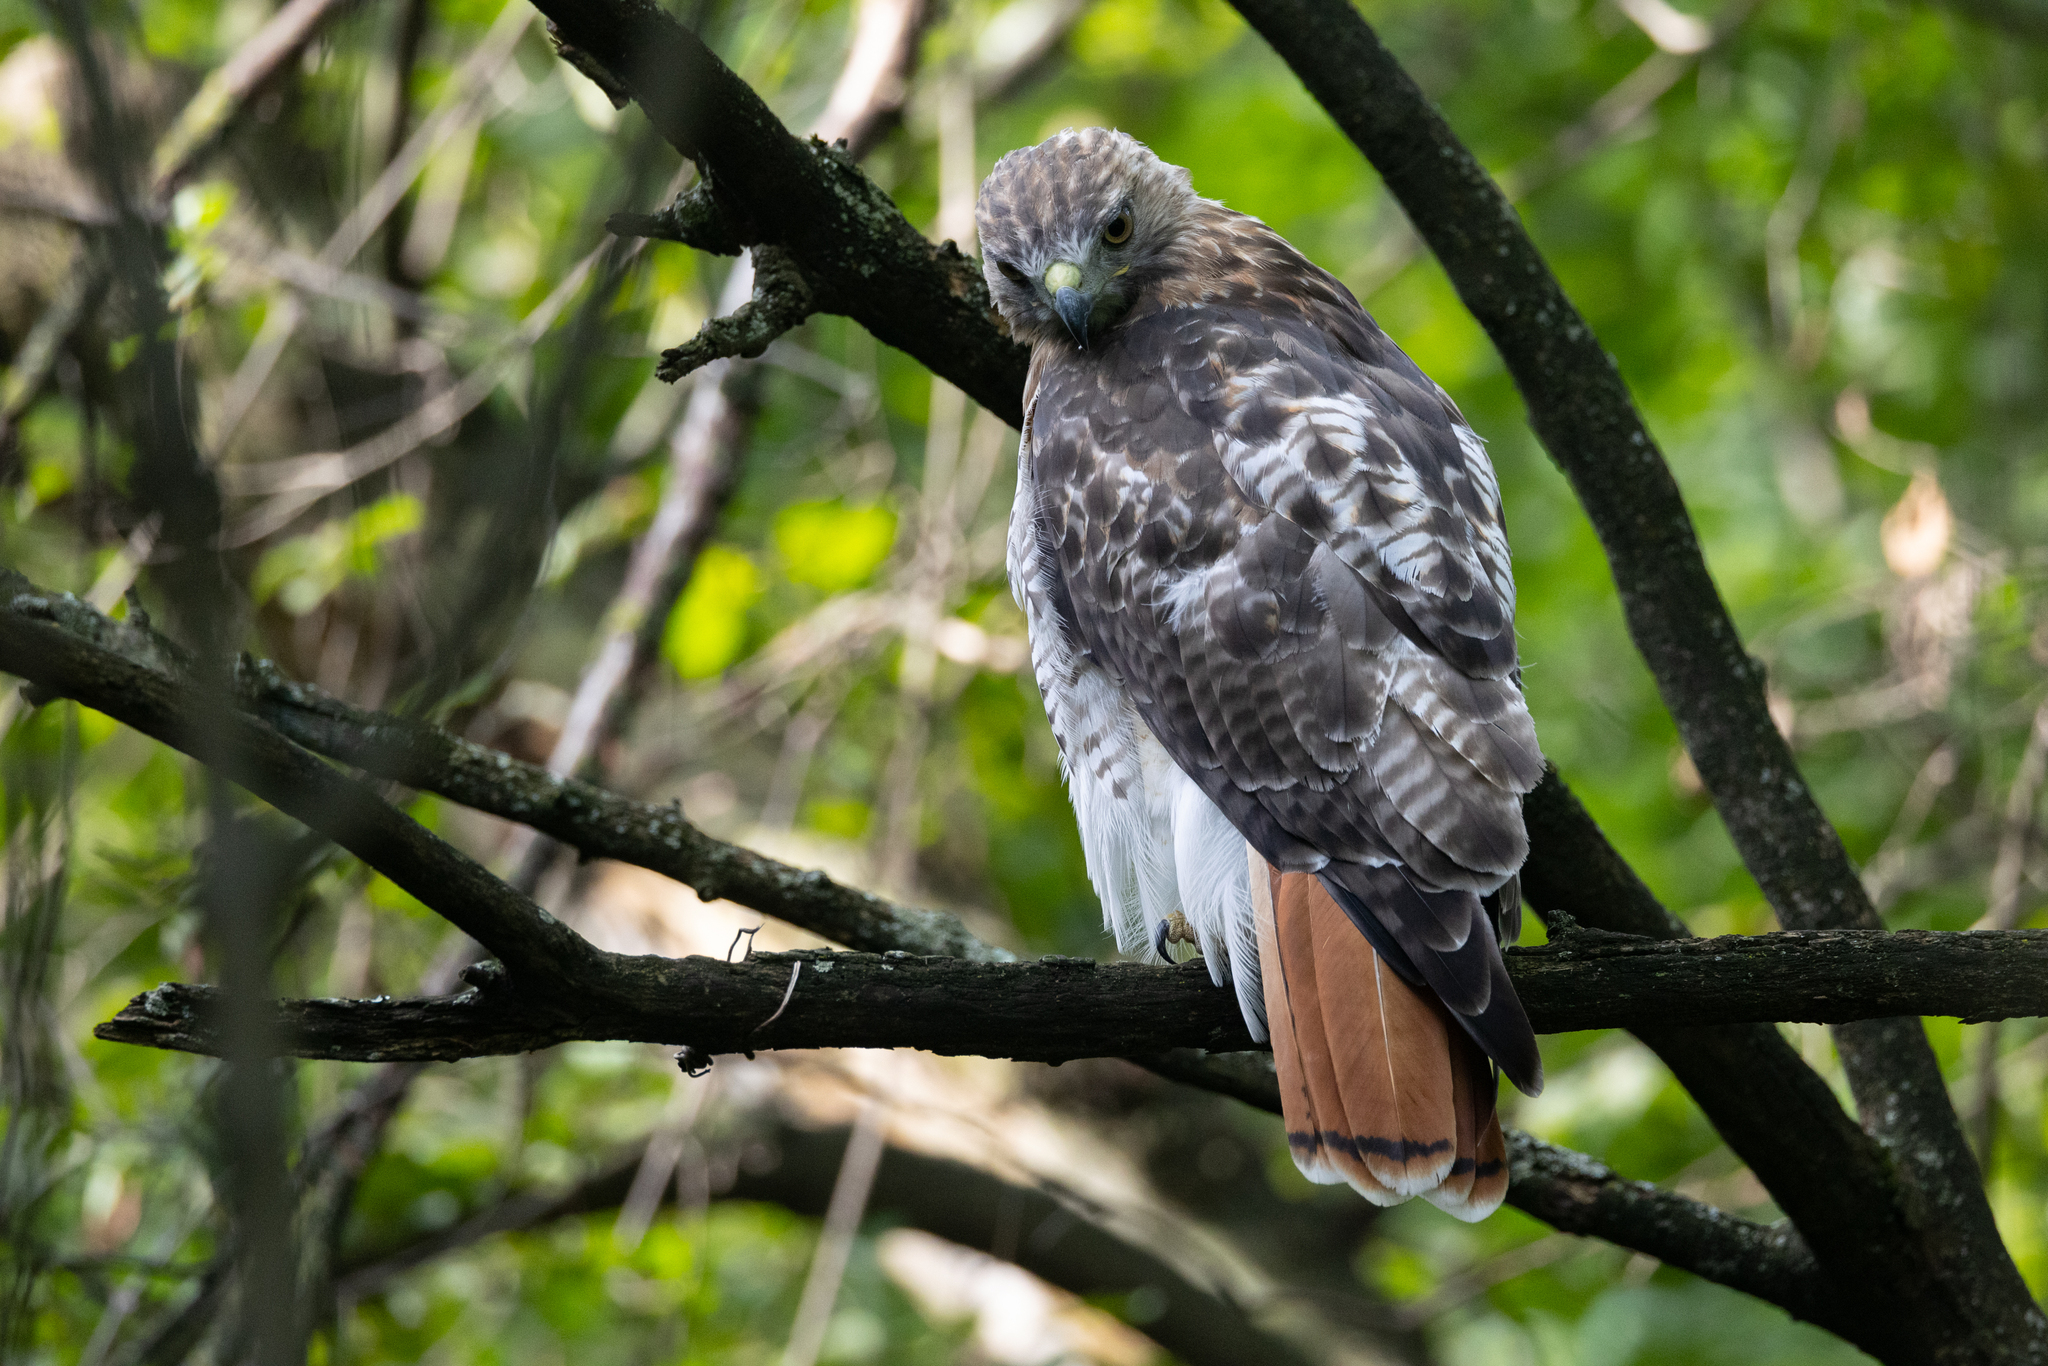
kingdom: Animalia
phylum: Chordata
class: Aves
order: Accipitriformes
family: Accipitridae
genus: Buteo
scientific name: Buteo jamaicensis
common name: Red-tailed hawk
